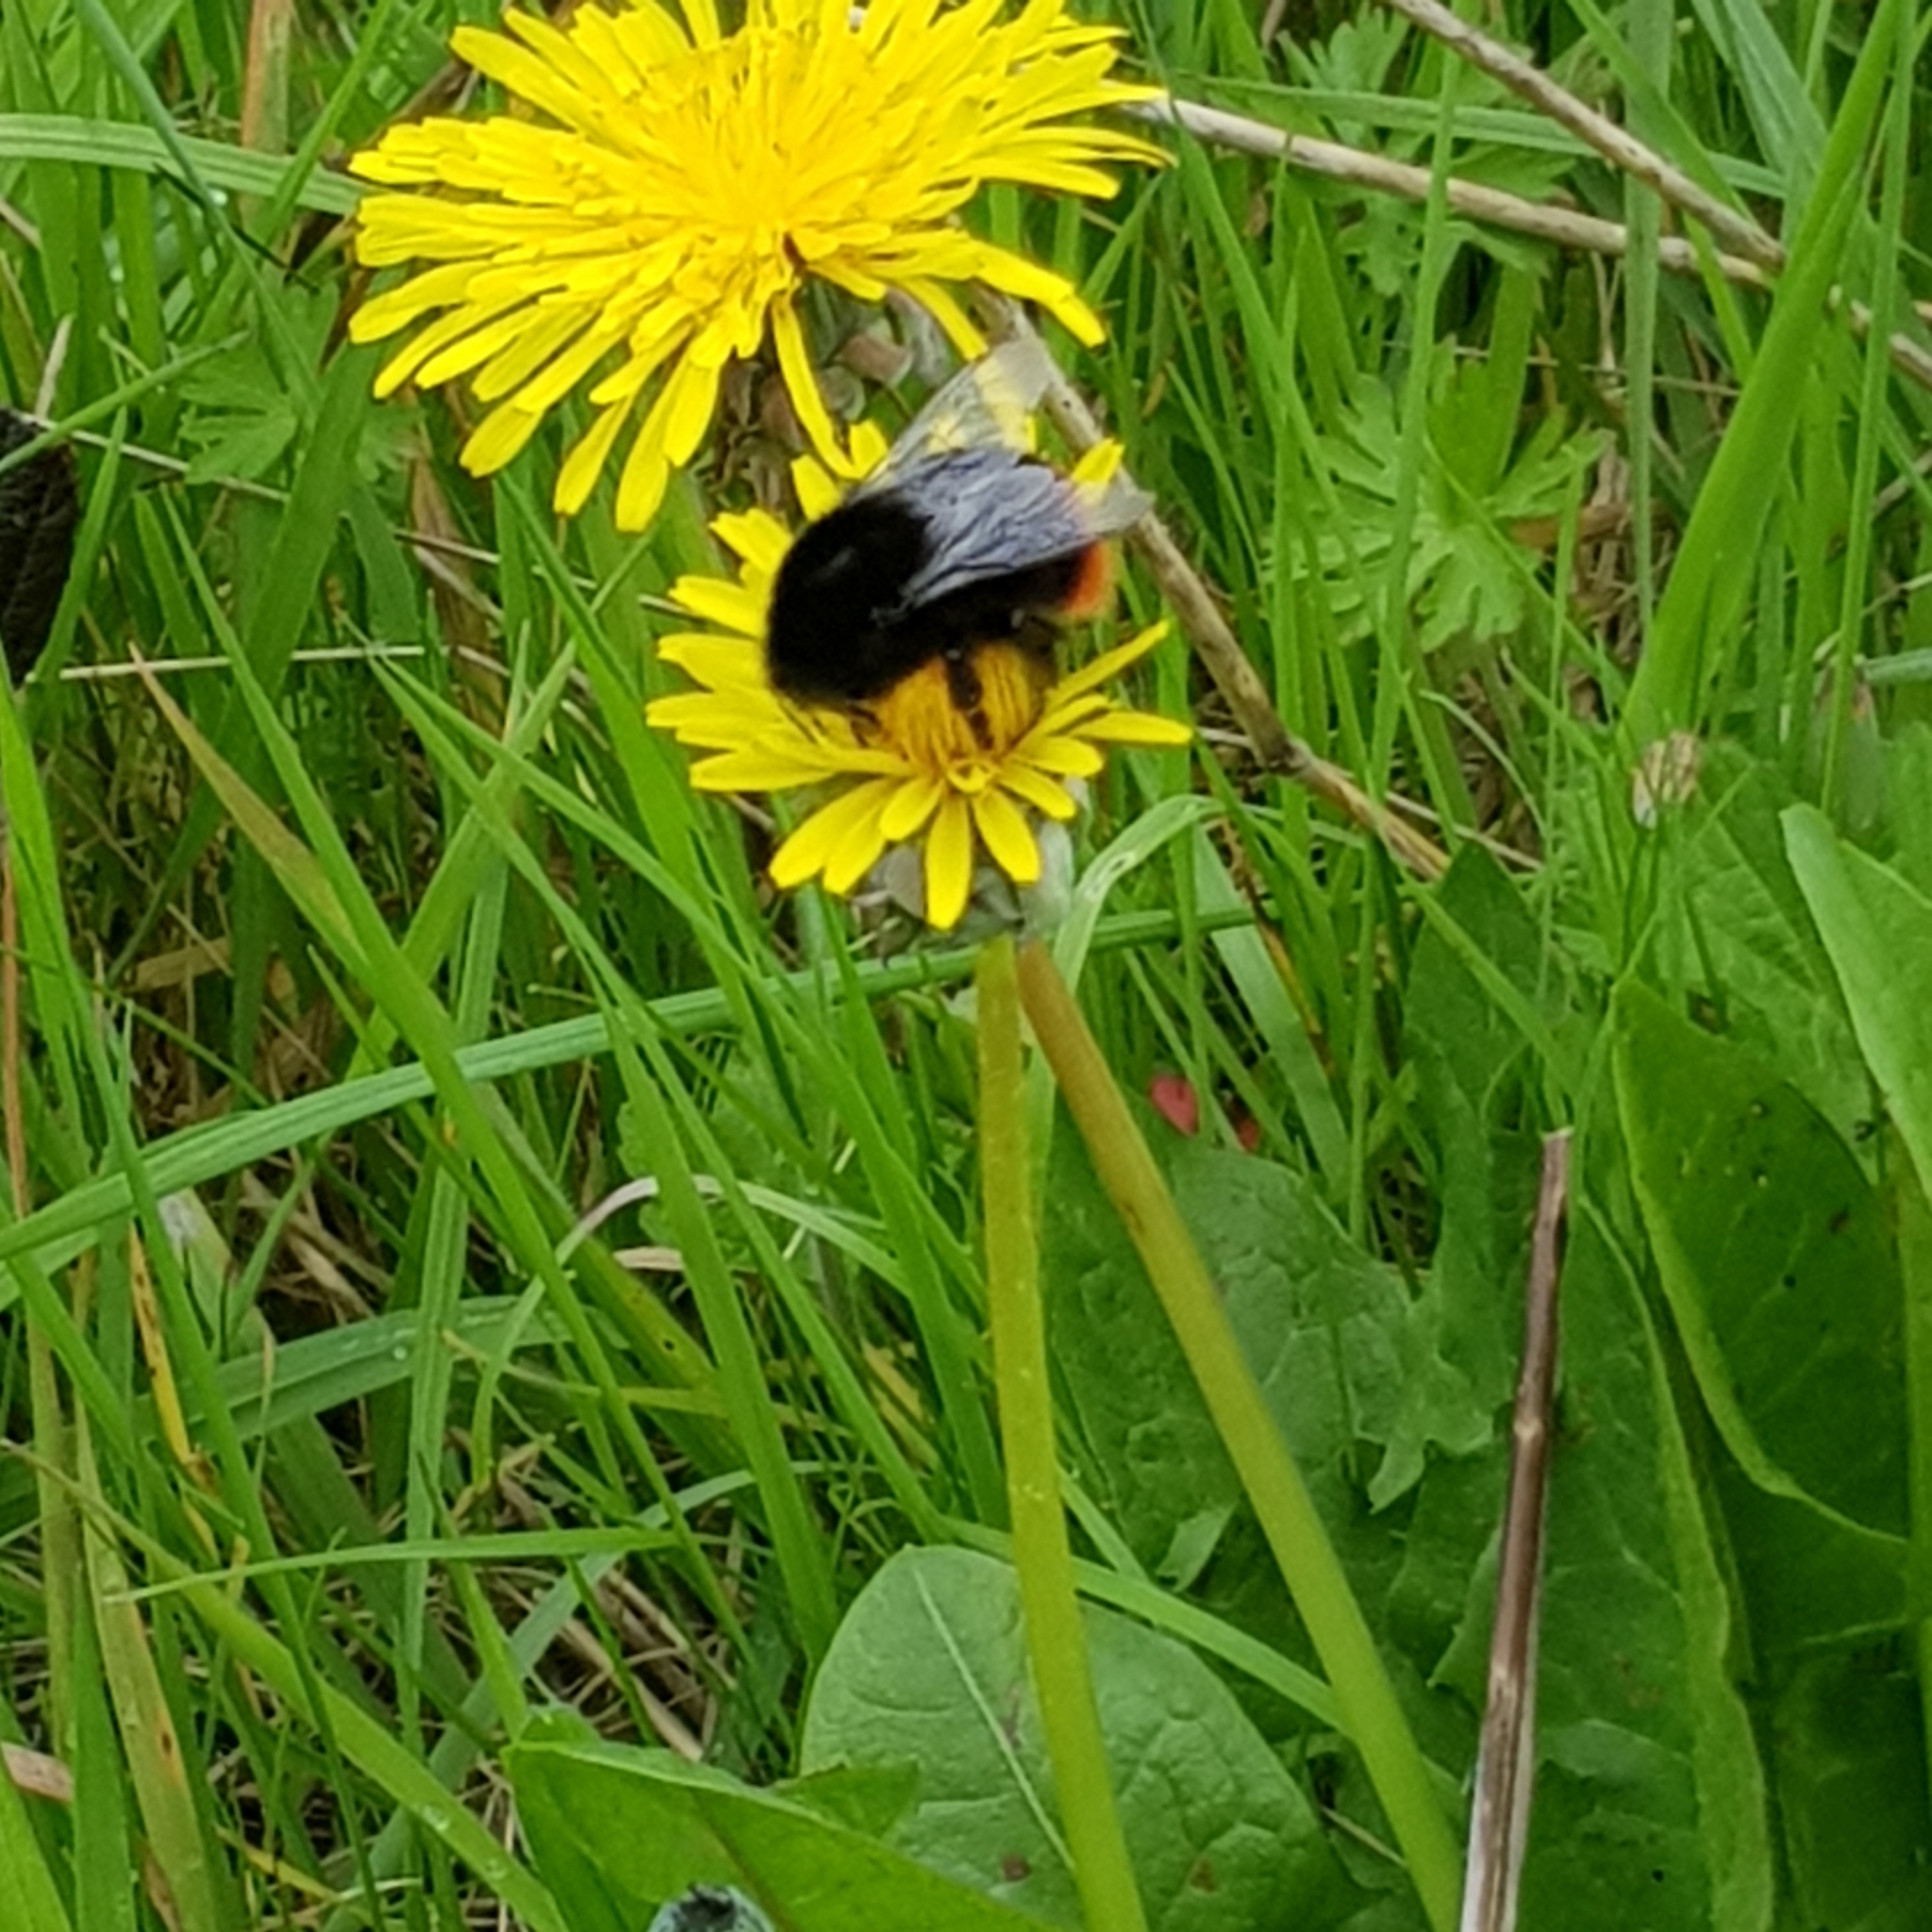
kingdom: Animalia
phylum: Arthropoda
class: Insecta
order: Hymenoptera
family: Apidae
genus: Bombus
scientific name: Bombus lapidarius
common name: Large red-tailed humble-bee
